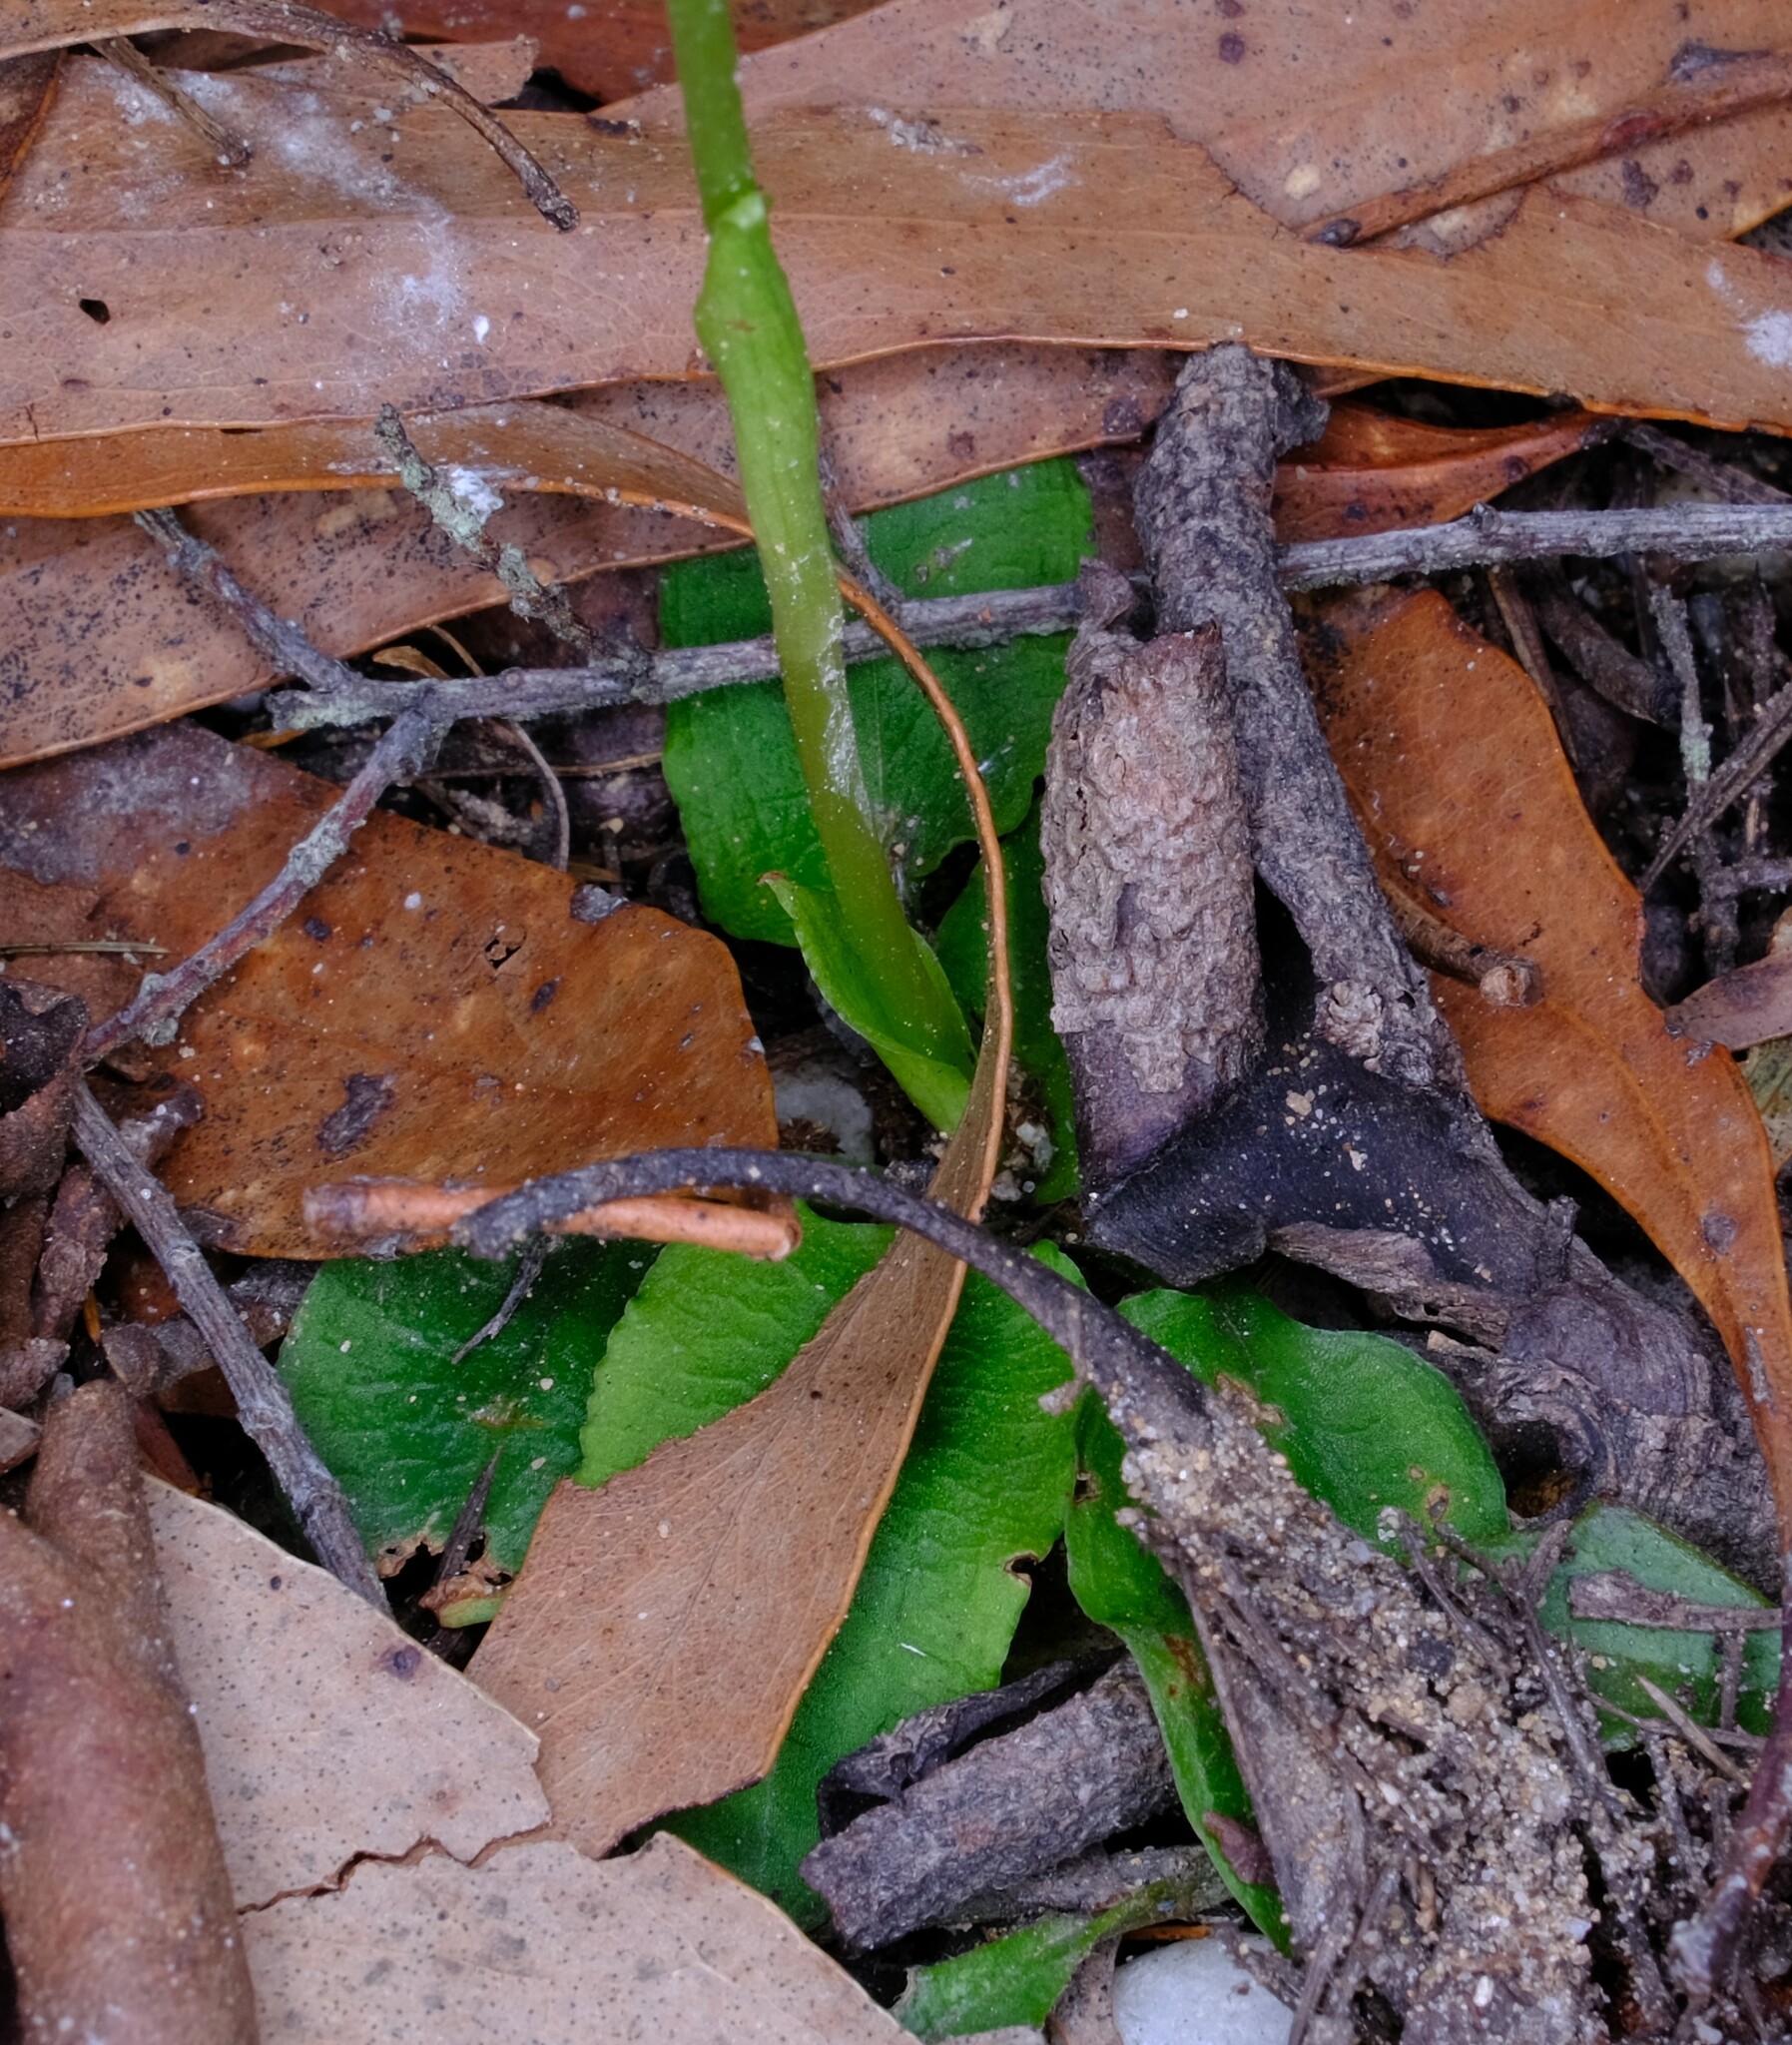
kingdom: Plantae
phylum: Tracheophyta
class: Liliopsida
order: Asparagales
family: Orchidaceae
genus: Pterostylis
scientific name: Pterostylis pedunculata
